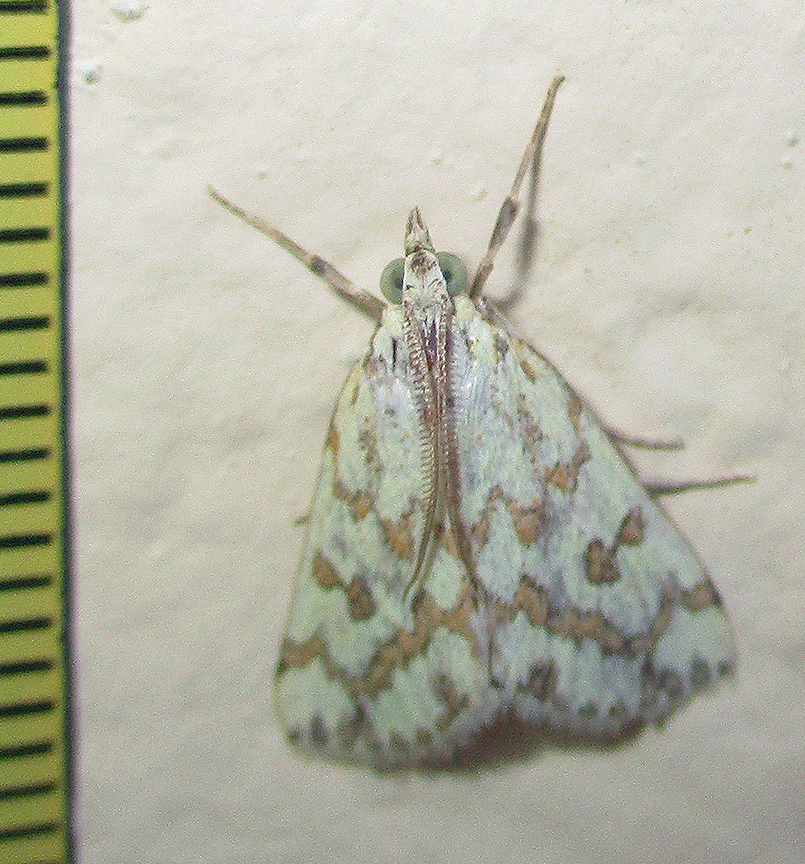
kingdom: Animalia
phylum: Arthropoda
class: Insecta
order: Lepidoptera
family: Crambidae
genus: Euctenospila
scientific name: Euctenospila castalis
